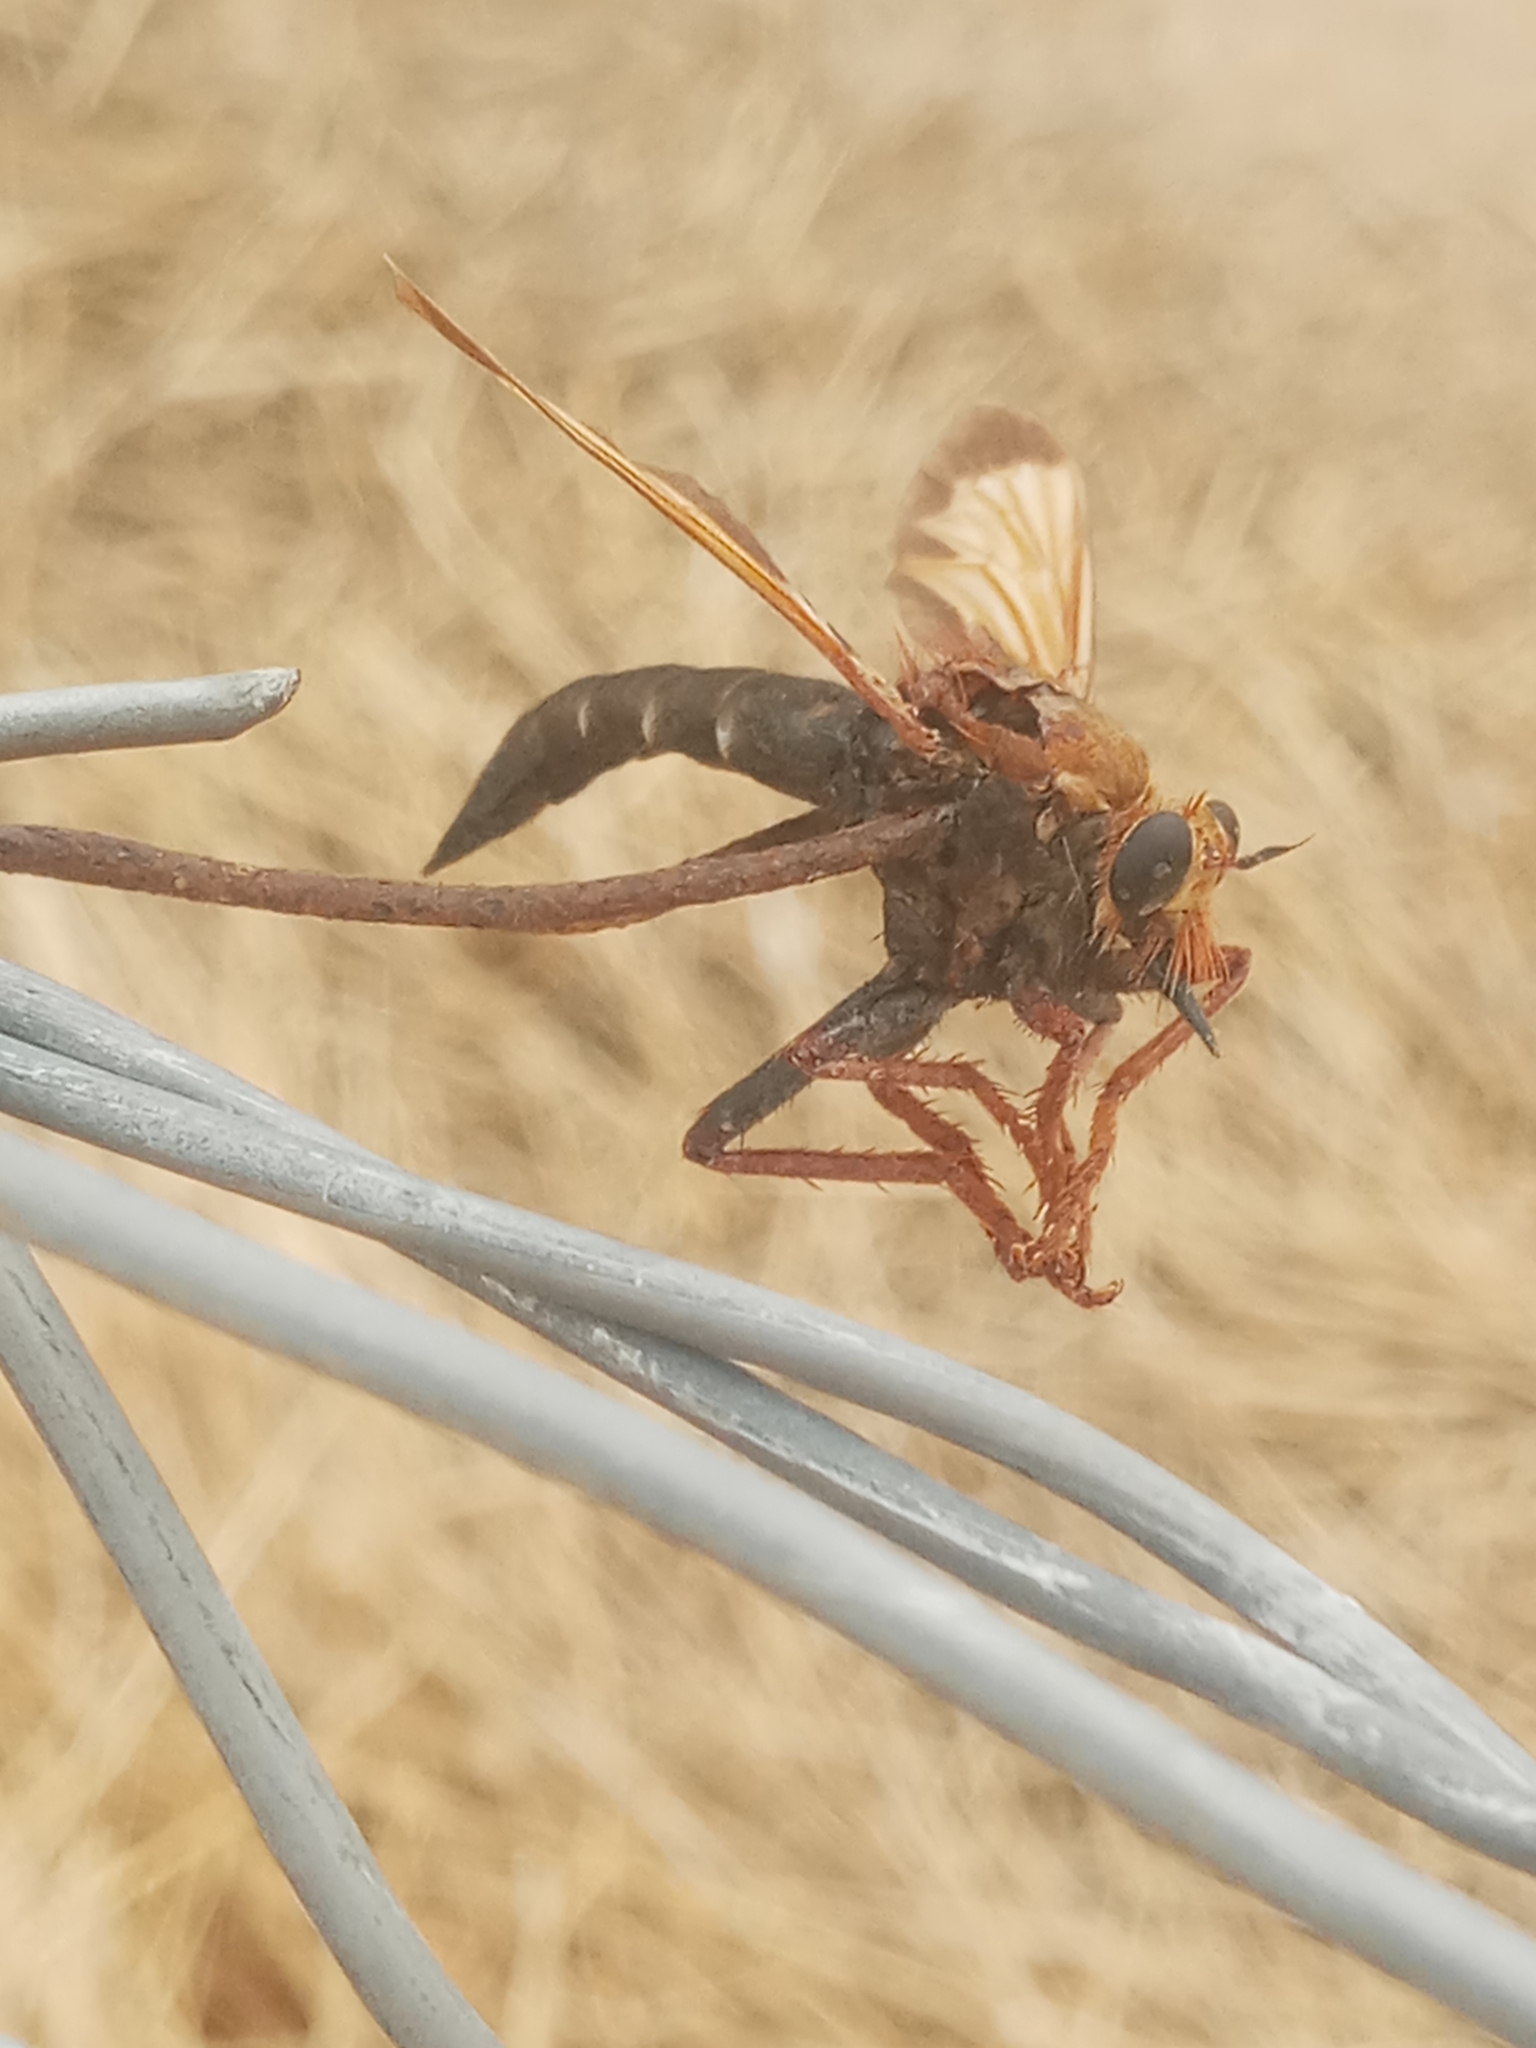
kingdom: Animalia
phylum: Arthropoda
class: Insecta
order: Diptera
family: Asilidae
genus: Asilus
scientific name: Asilus barbarus
